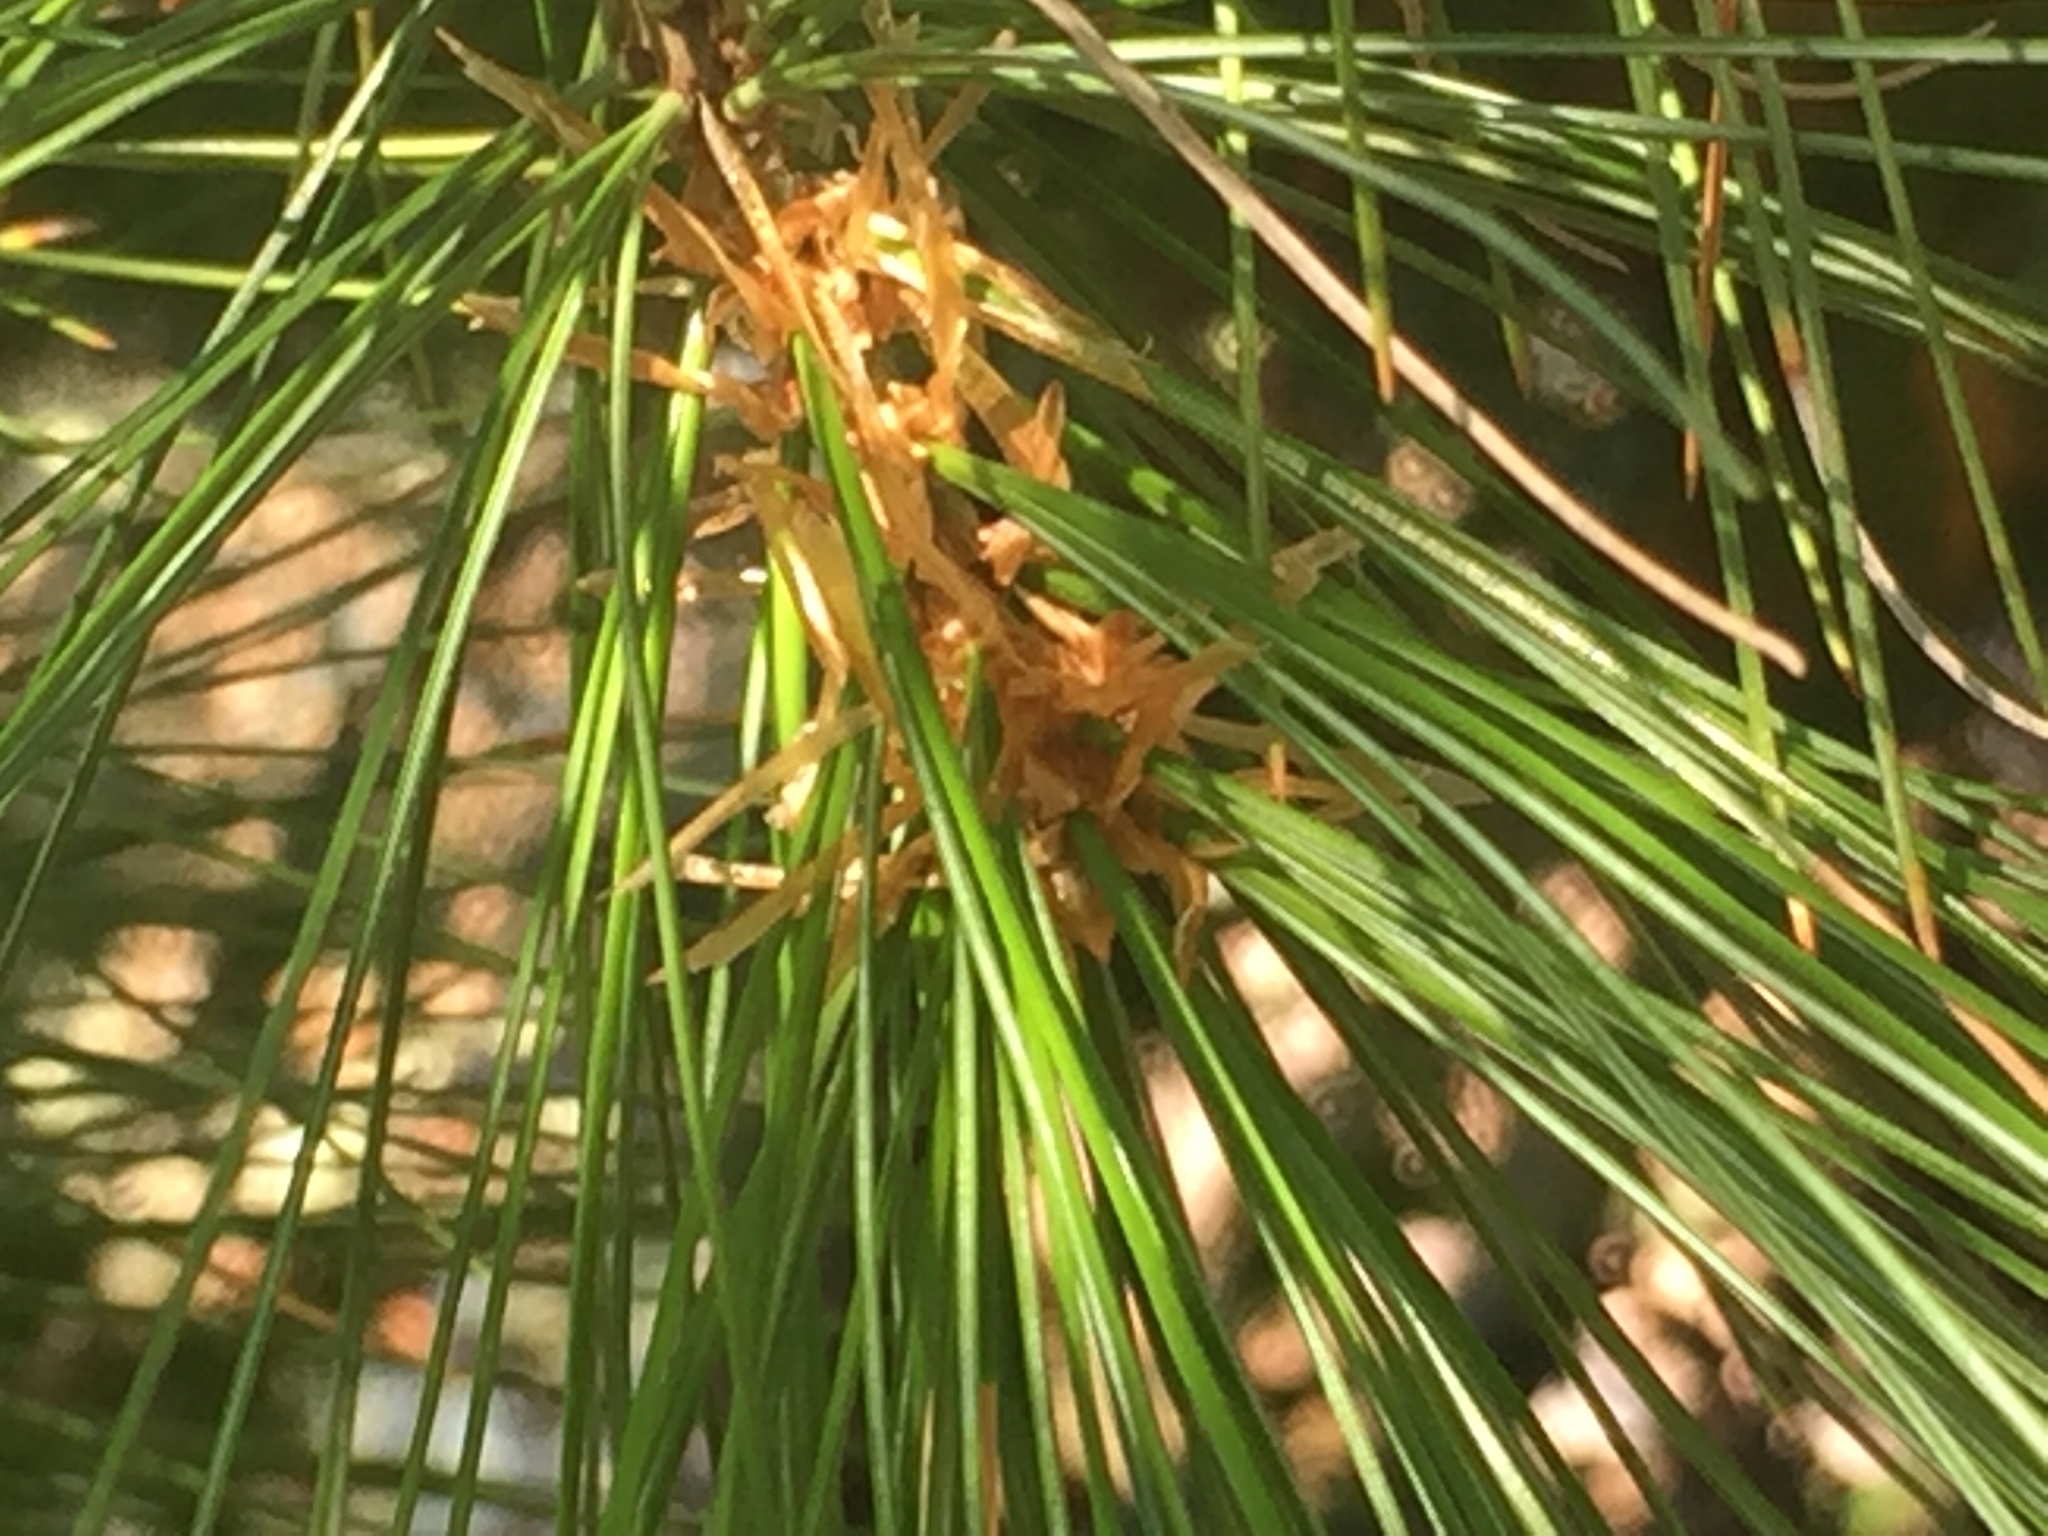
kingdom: Plantae
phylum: Tracheophyta
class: Pinopsida
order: Pinales
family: Pinaceae
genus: Pinus
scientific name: Pinus strobus
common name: Weymouth pine
